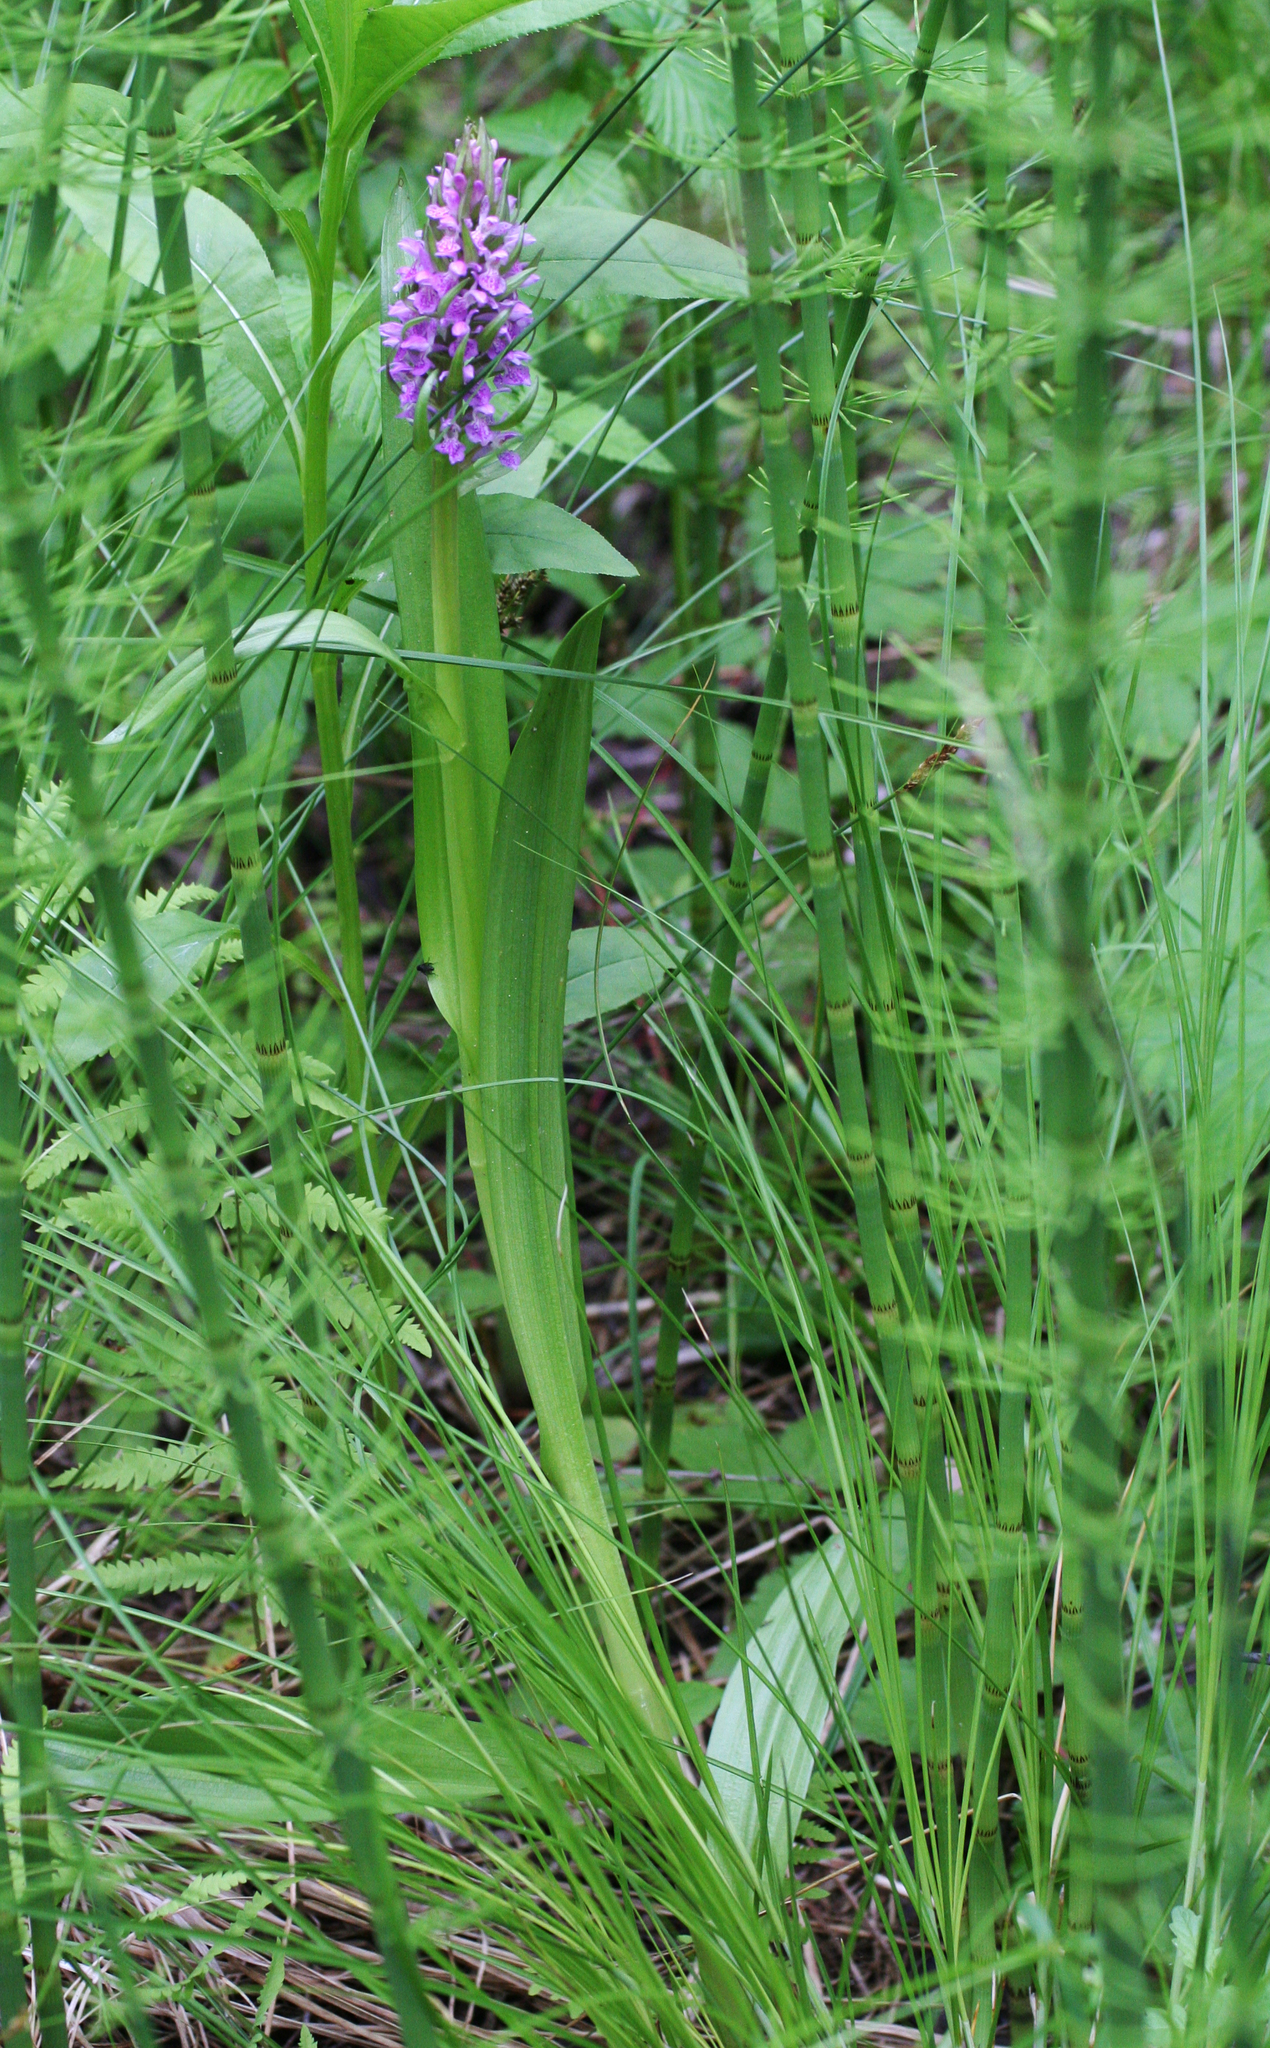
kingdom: Plantae
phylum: Tracheophyta
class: Liliopsida
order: Asparagales
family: Orchidaceae
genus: Dactylorhiza
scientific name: Dactylorhiza incarnata
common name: Early marsh-orchid
